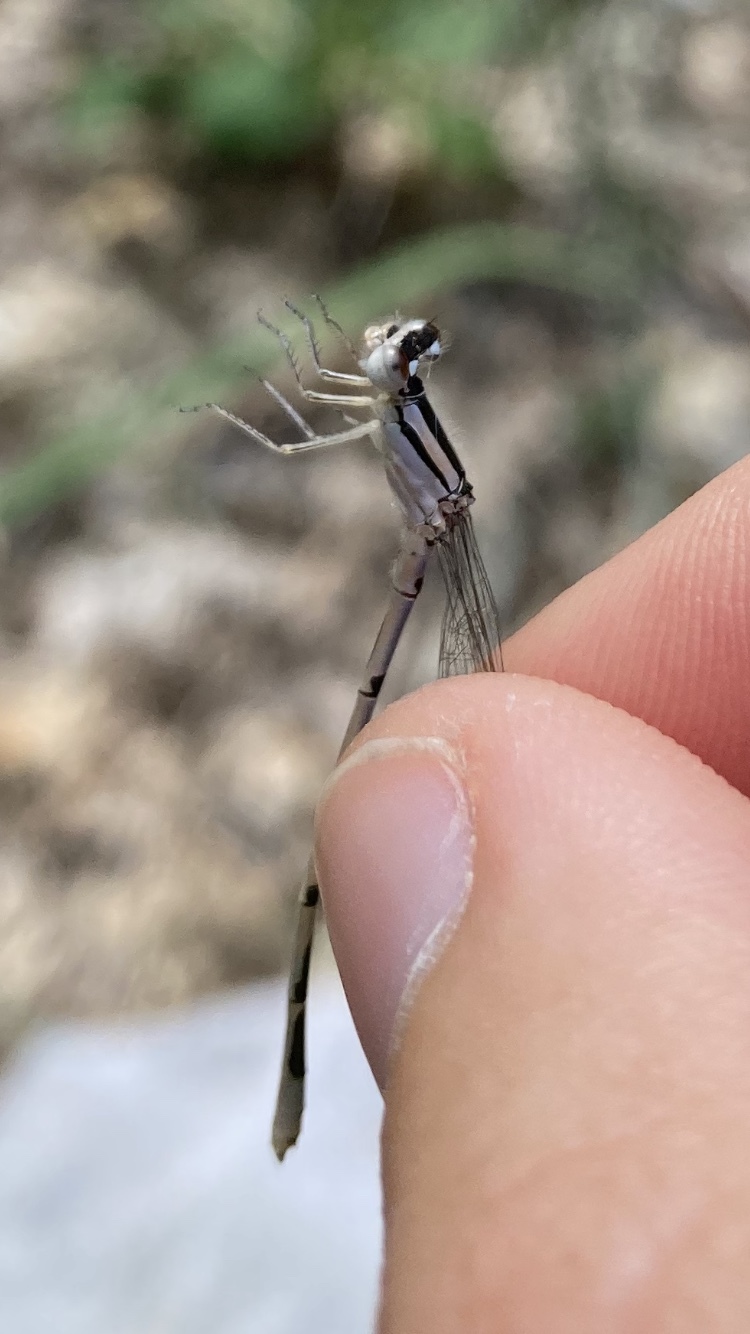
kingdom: Animalia
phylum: Arthropoda
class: Insecta
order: Odonata
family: Coenagrionidae
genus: Enallagma
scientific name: Enallagma civile
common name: Damselfly
